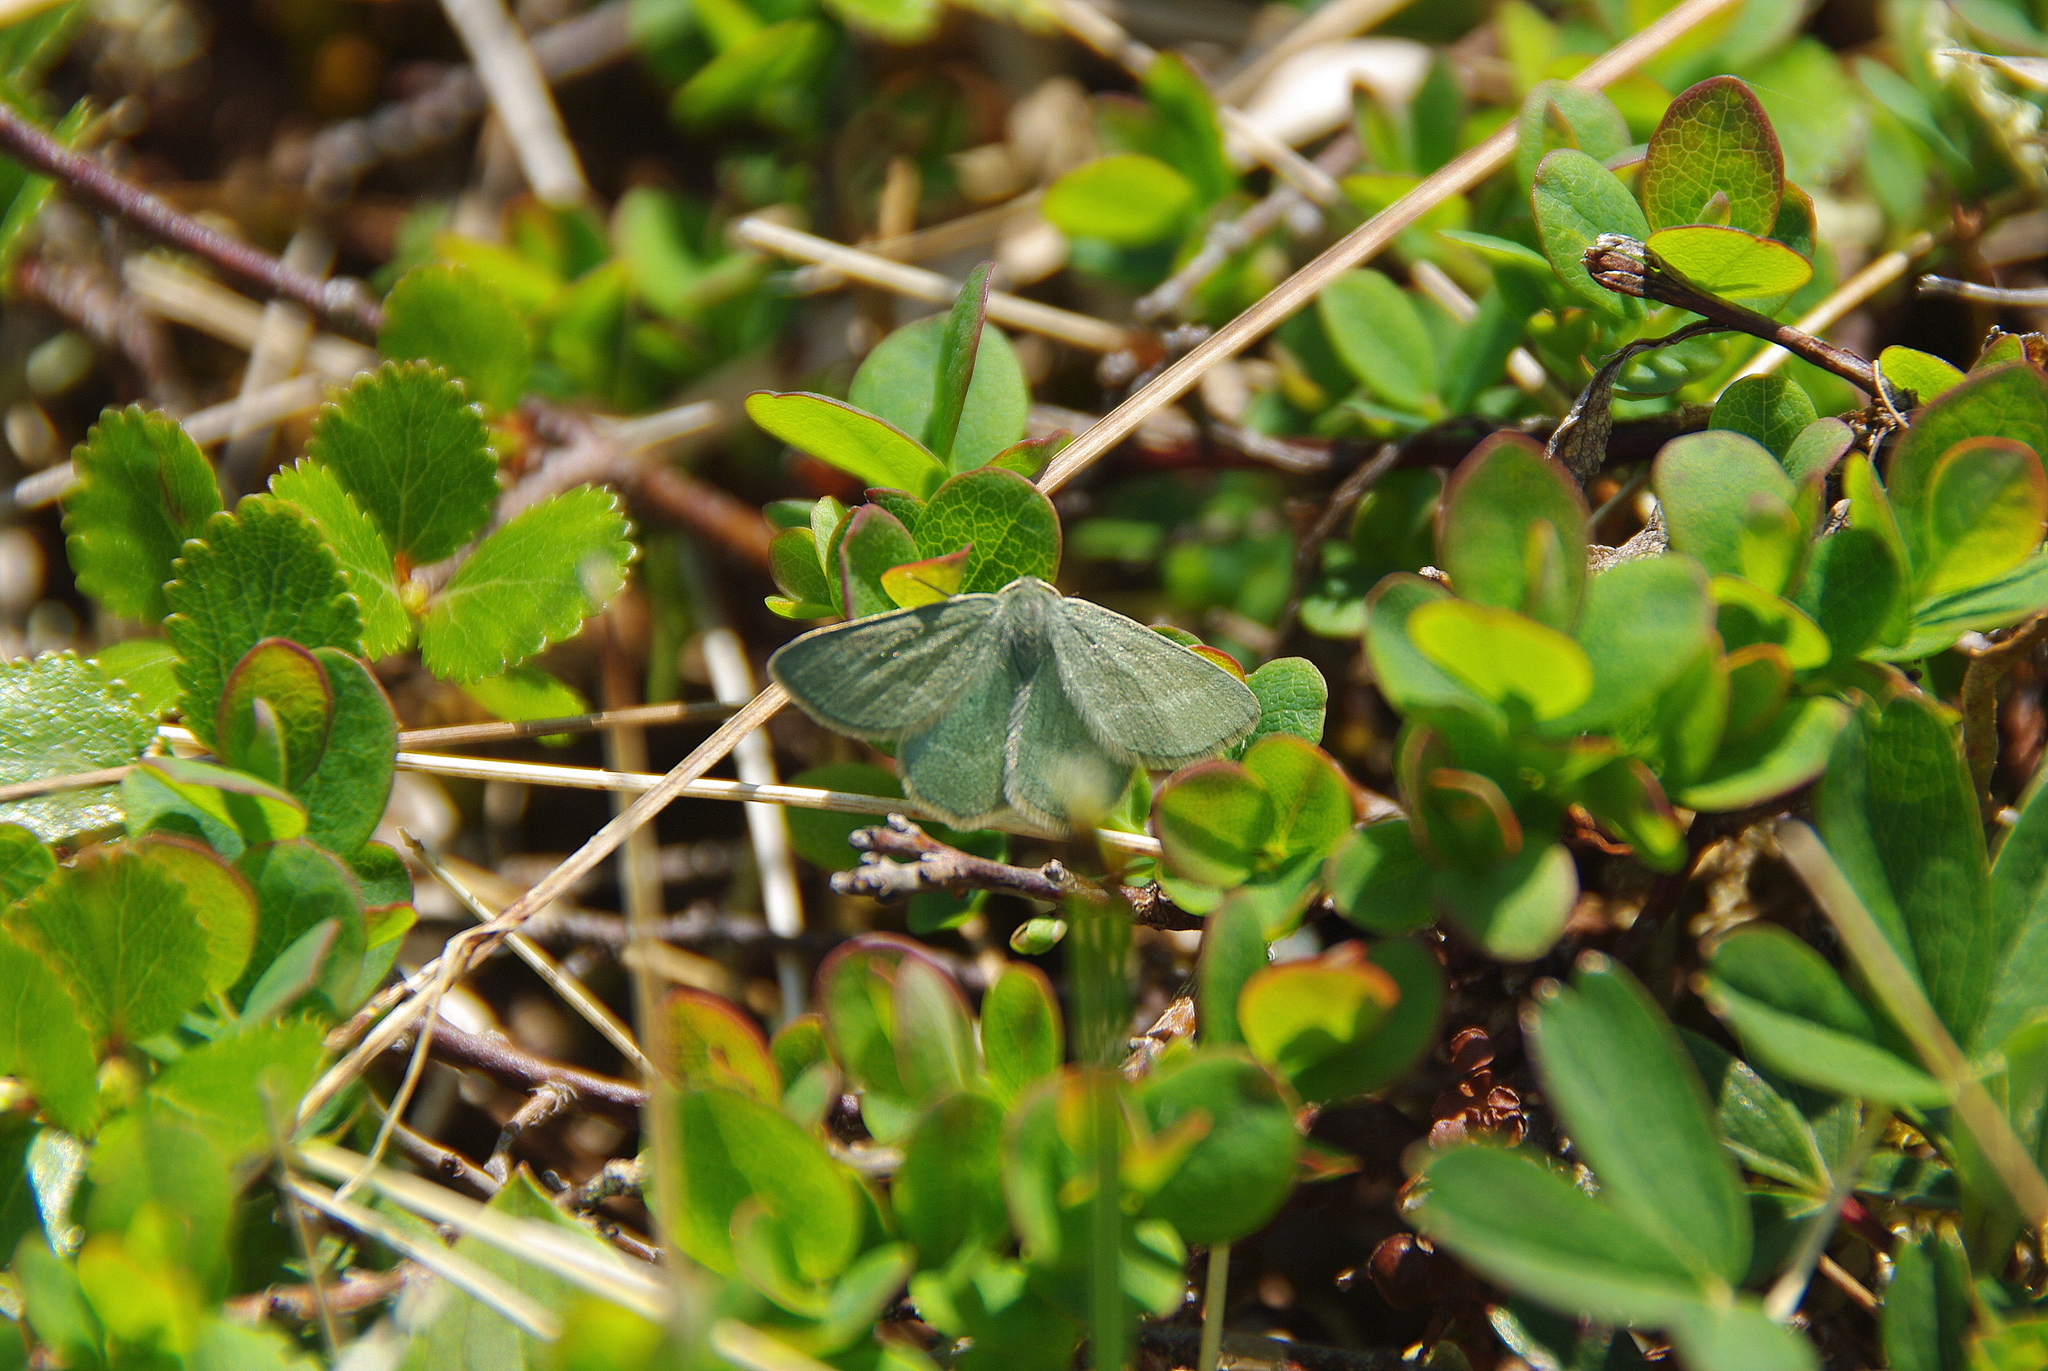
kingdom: Animalia
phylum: Arthropoda
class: Insecta
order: Lepidoptera
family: Geometridae
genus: Mesothea
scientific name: Mesothea incertata
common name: Day emerald moth
